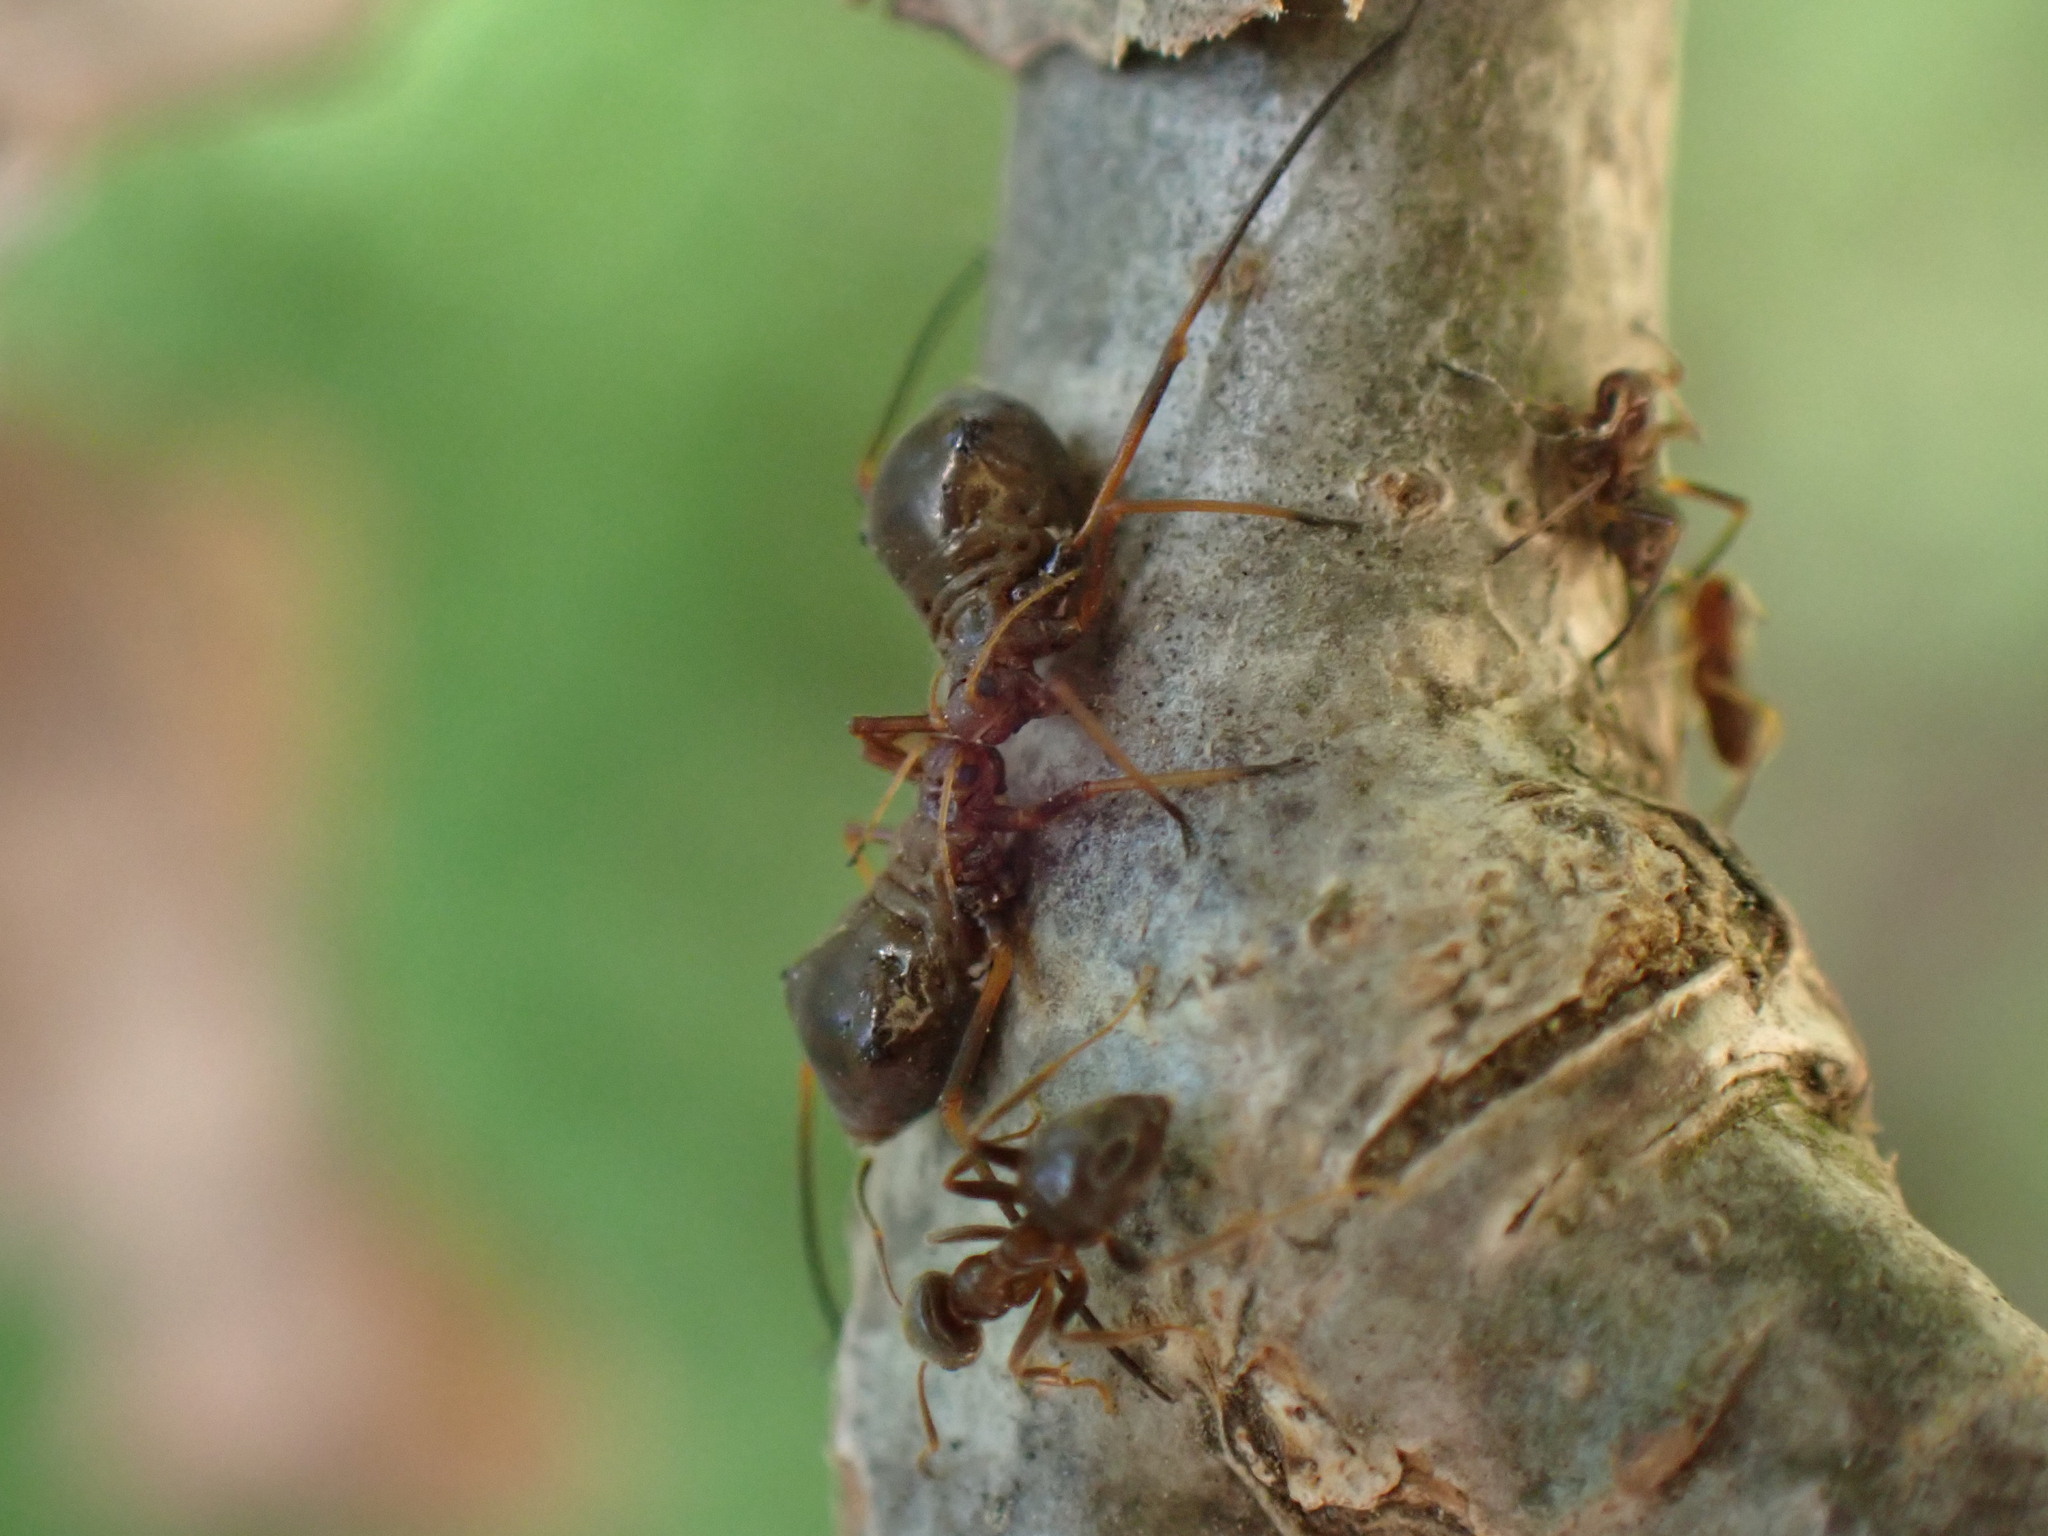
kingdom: Animalia
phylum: Arthropoda
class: Insecta
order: Hemiptera
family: Aphididae
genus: Lachnus
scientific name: Lachnus roboris
